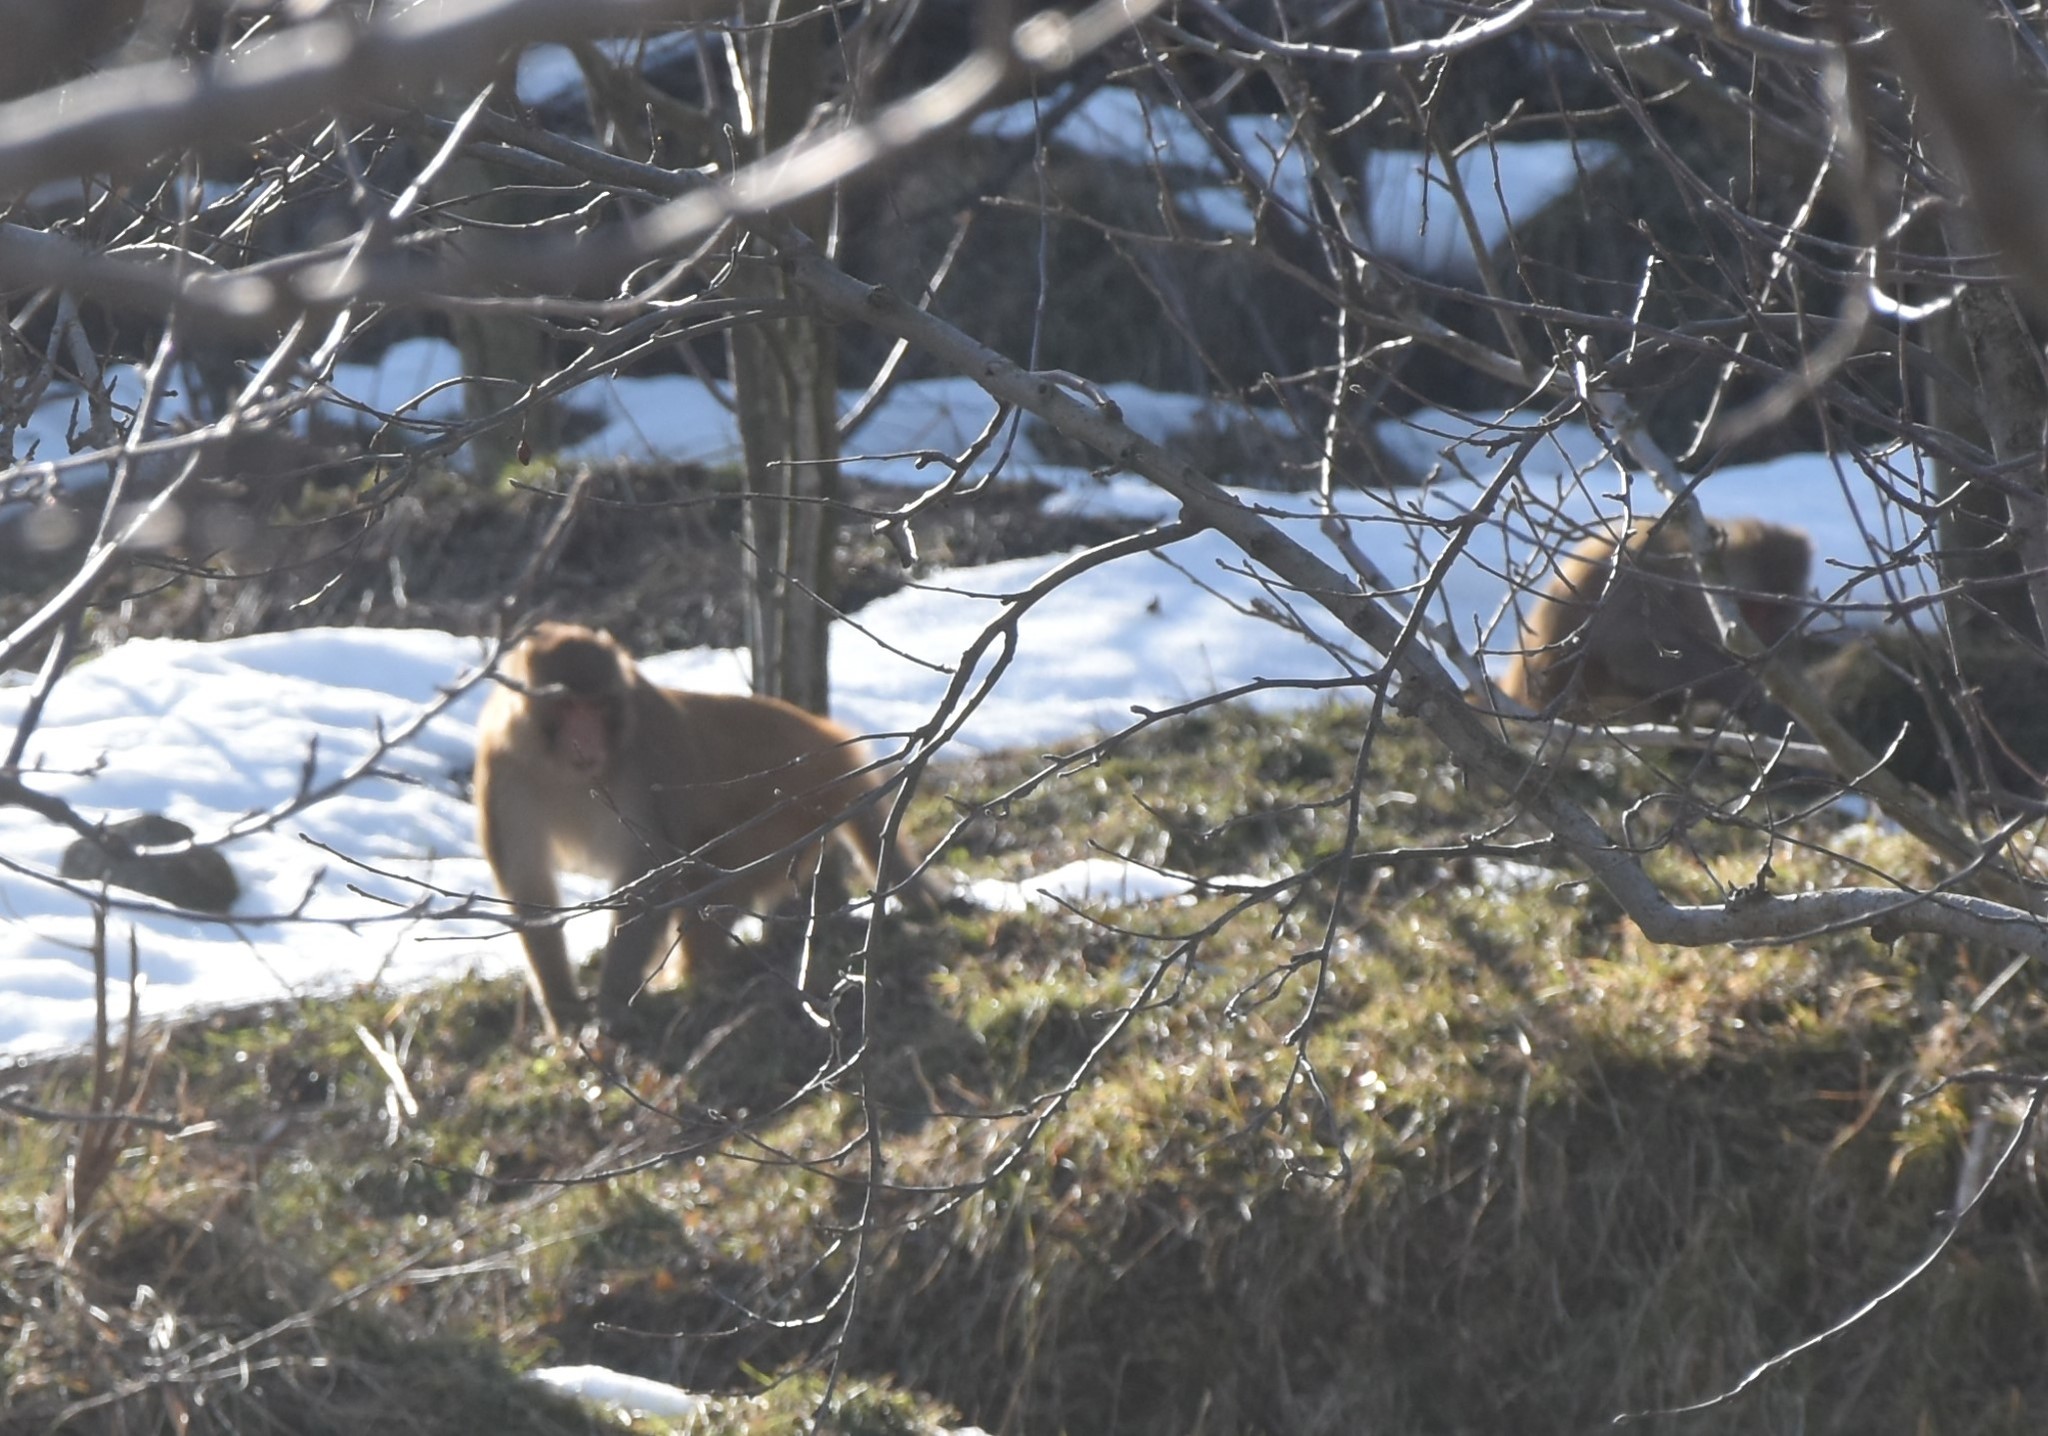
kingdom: Animalia
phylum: Chordata
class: Mammalia
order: Primates
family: Cercopithecidae
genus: Macaca
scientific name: Macaca mulatta
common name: Rhesus monkey
